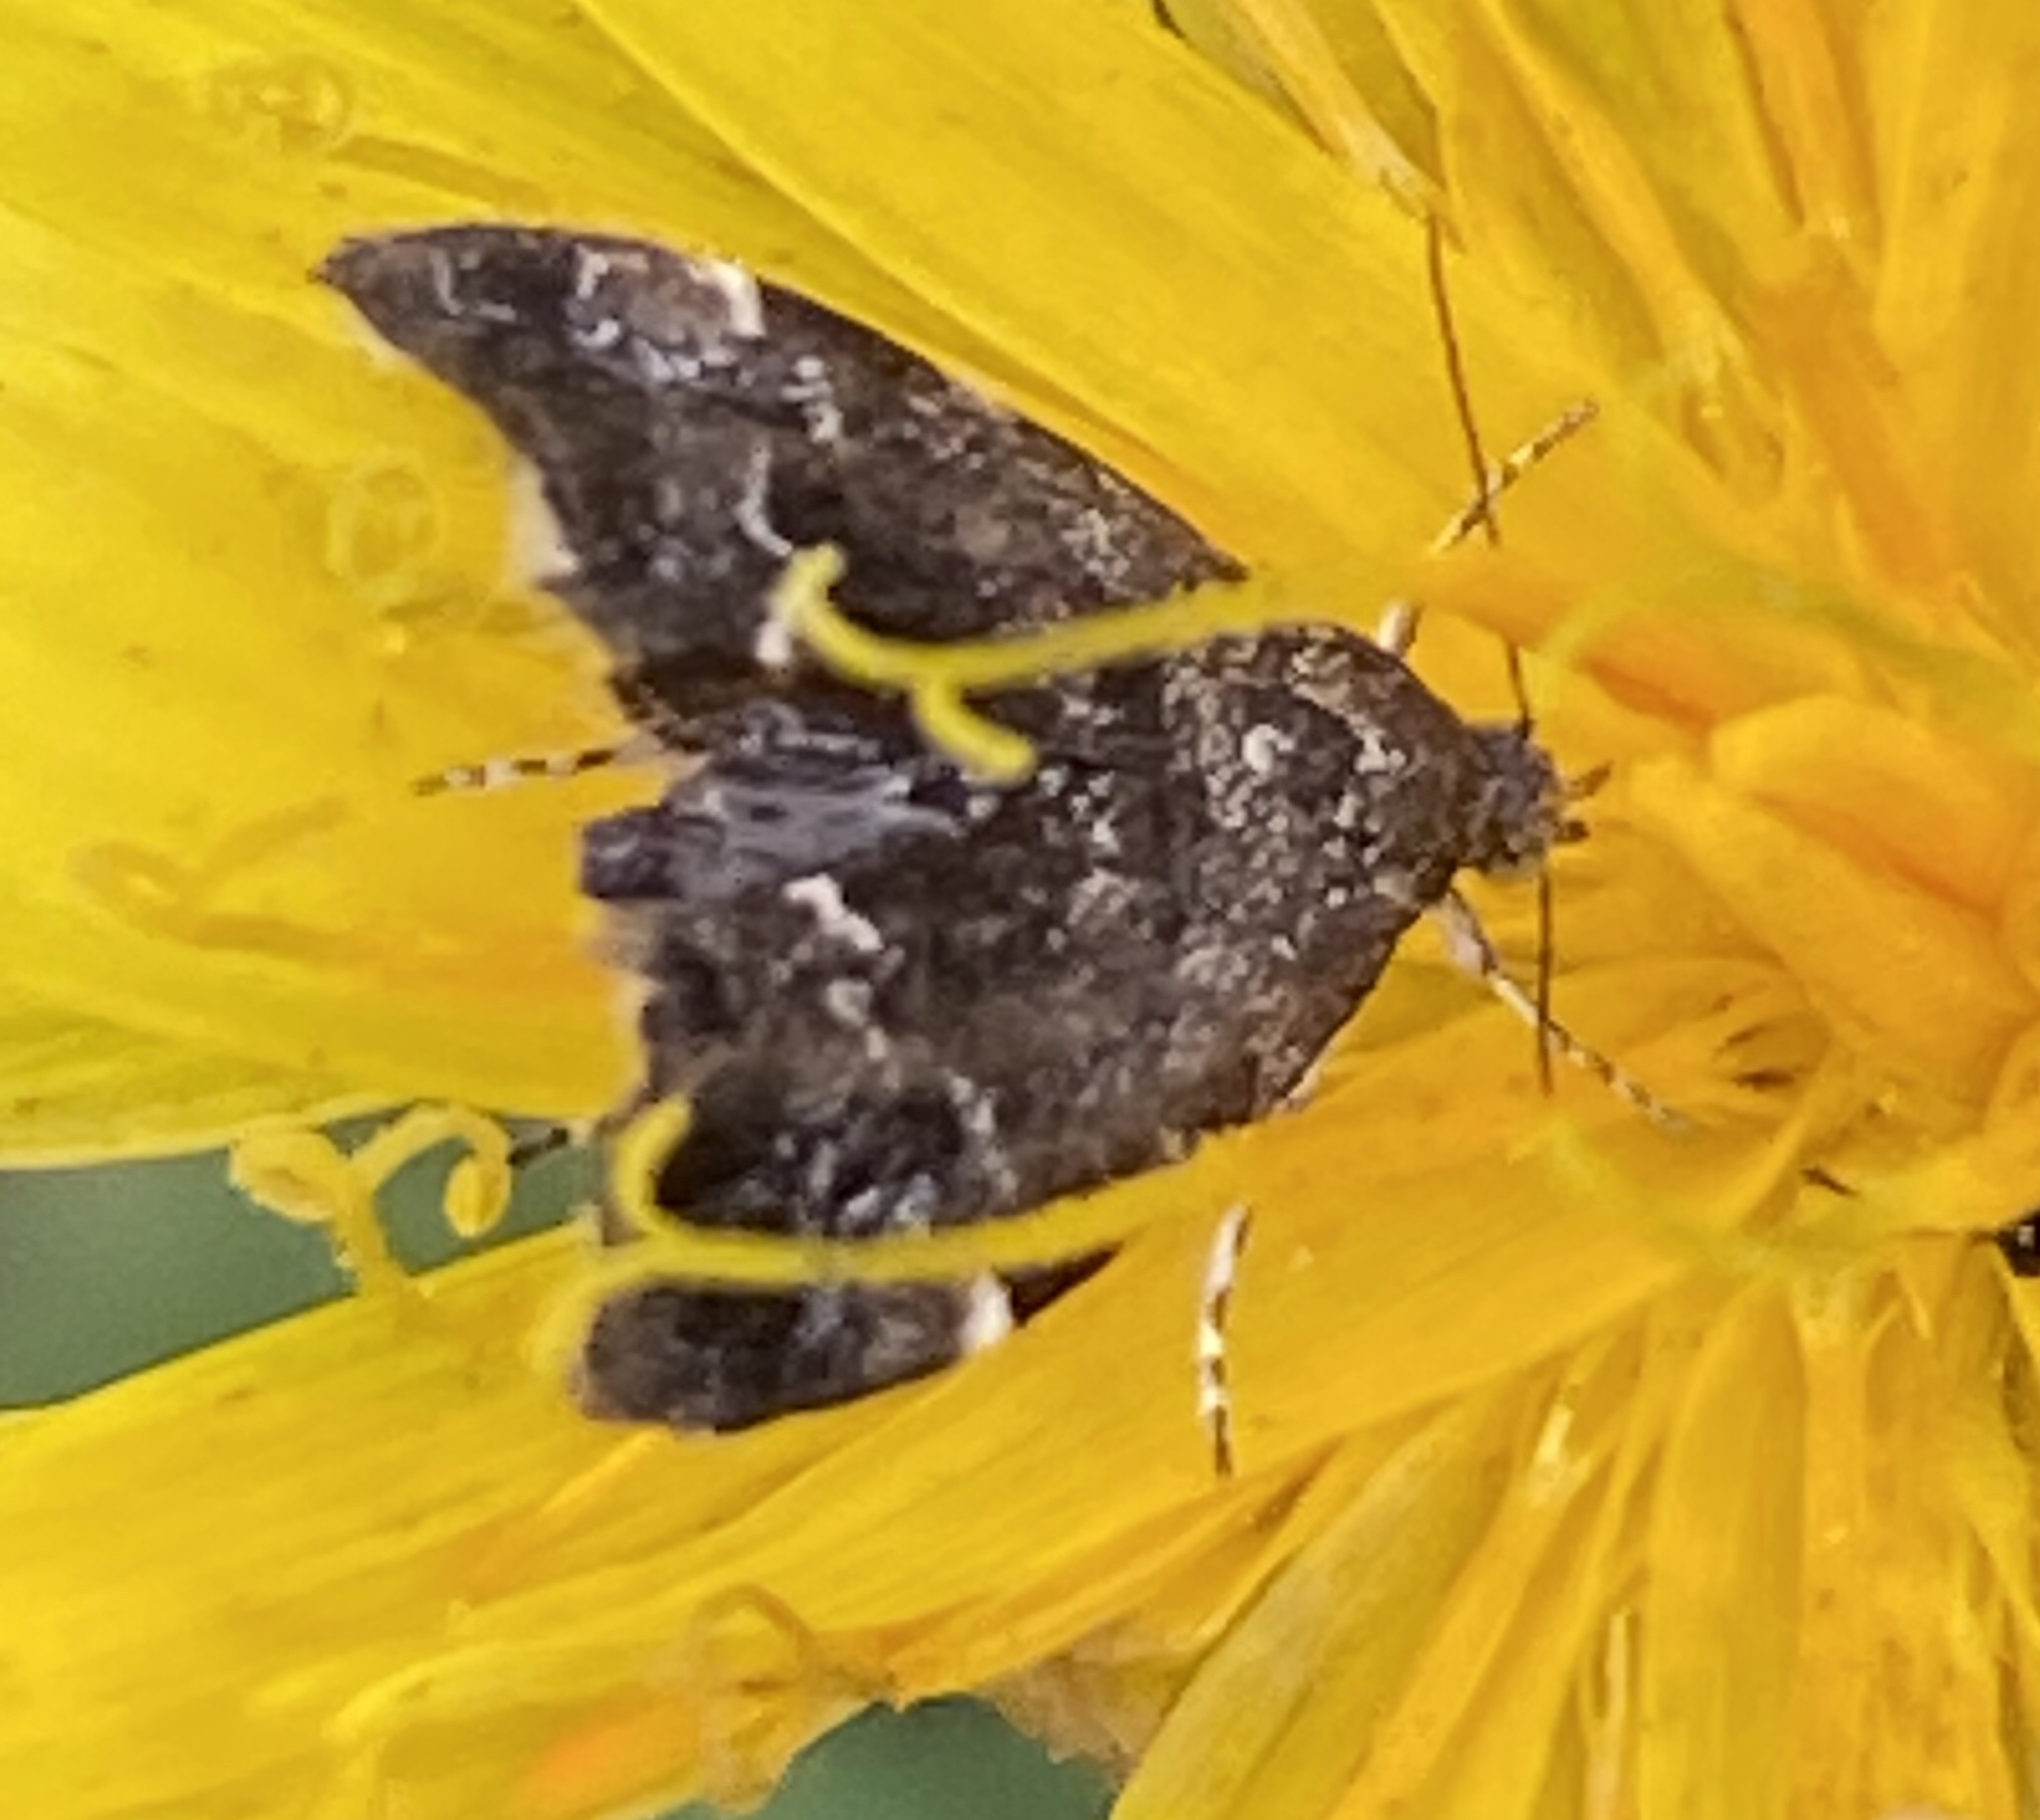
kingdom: Animalia
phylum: Arthropoda
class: Insecta
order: Lepidoptera
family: Choreutidae
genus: Anthophila
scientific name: Anthophila fabriciana
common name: Nettle-tap
